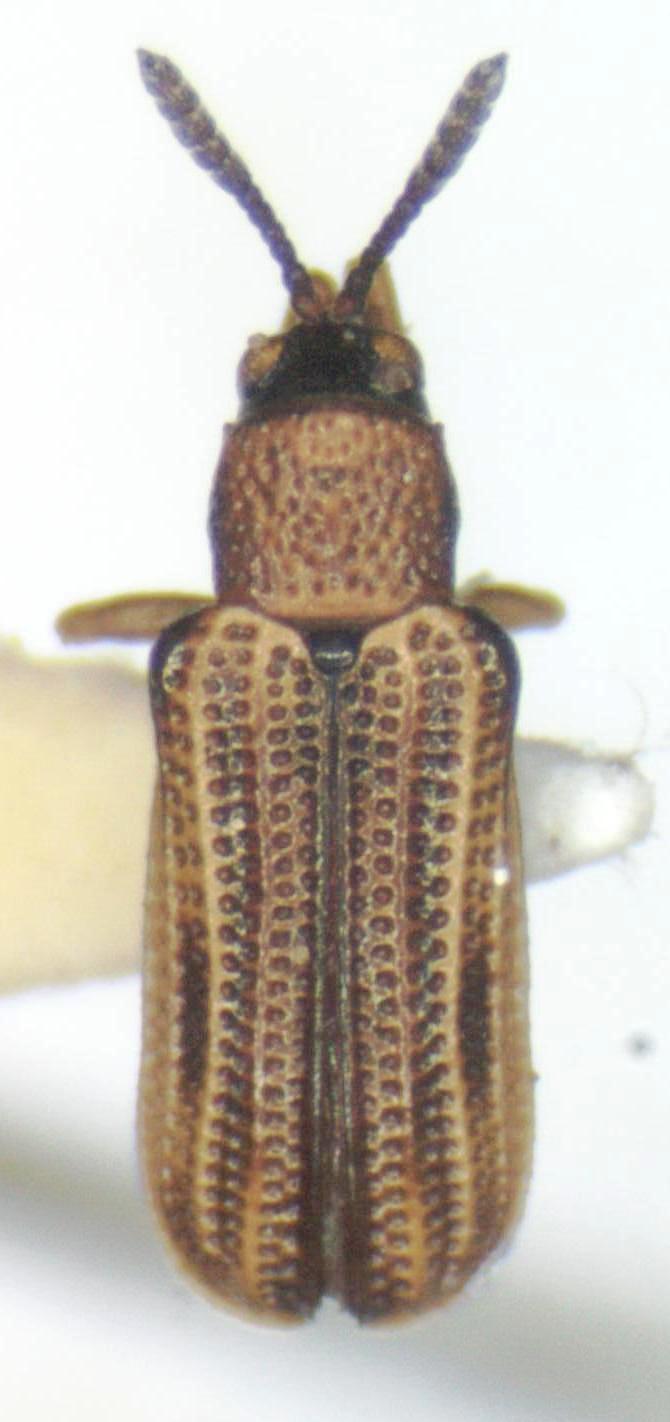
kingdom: Animalia
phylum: Arthropoda
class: Insecta
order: Coleoptera
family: Chrysomelidae
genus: Sumitrosis
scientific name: Sumitrosis gestroi
